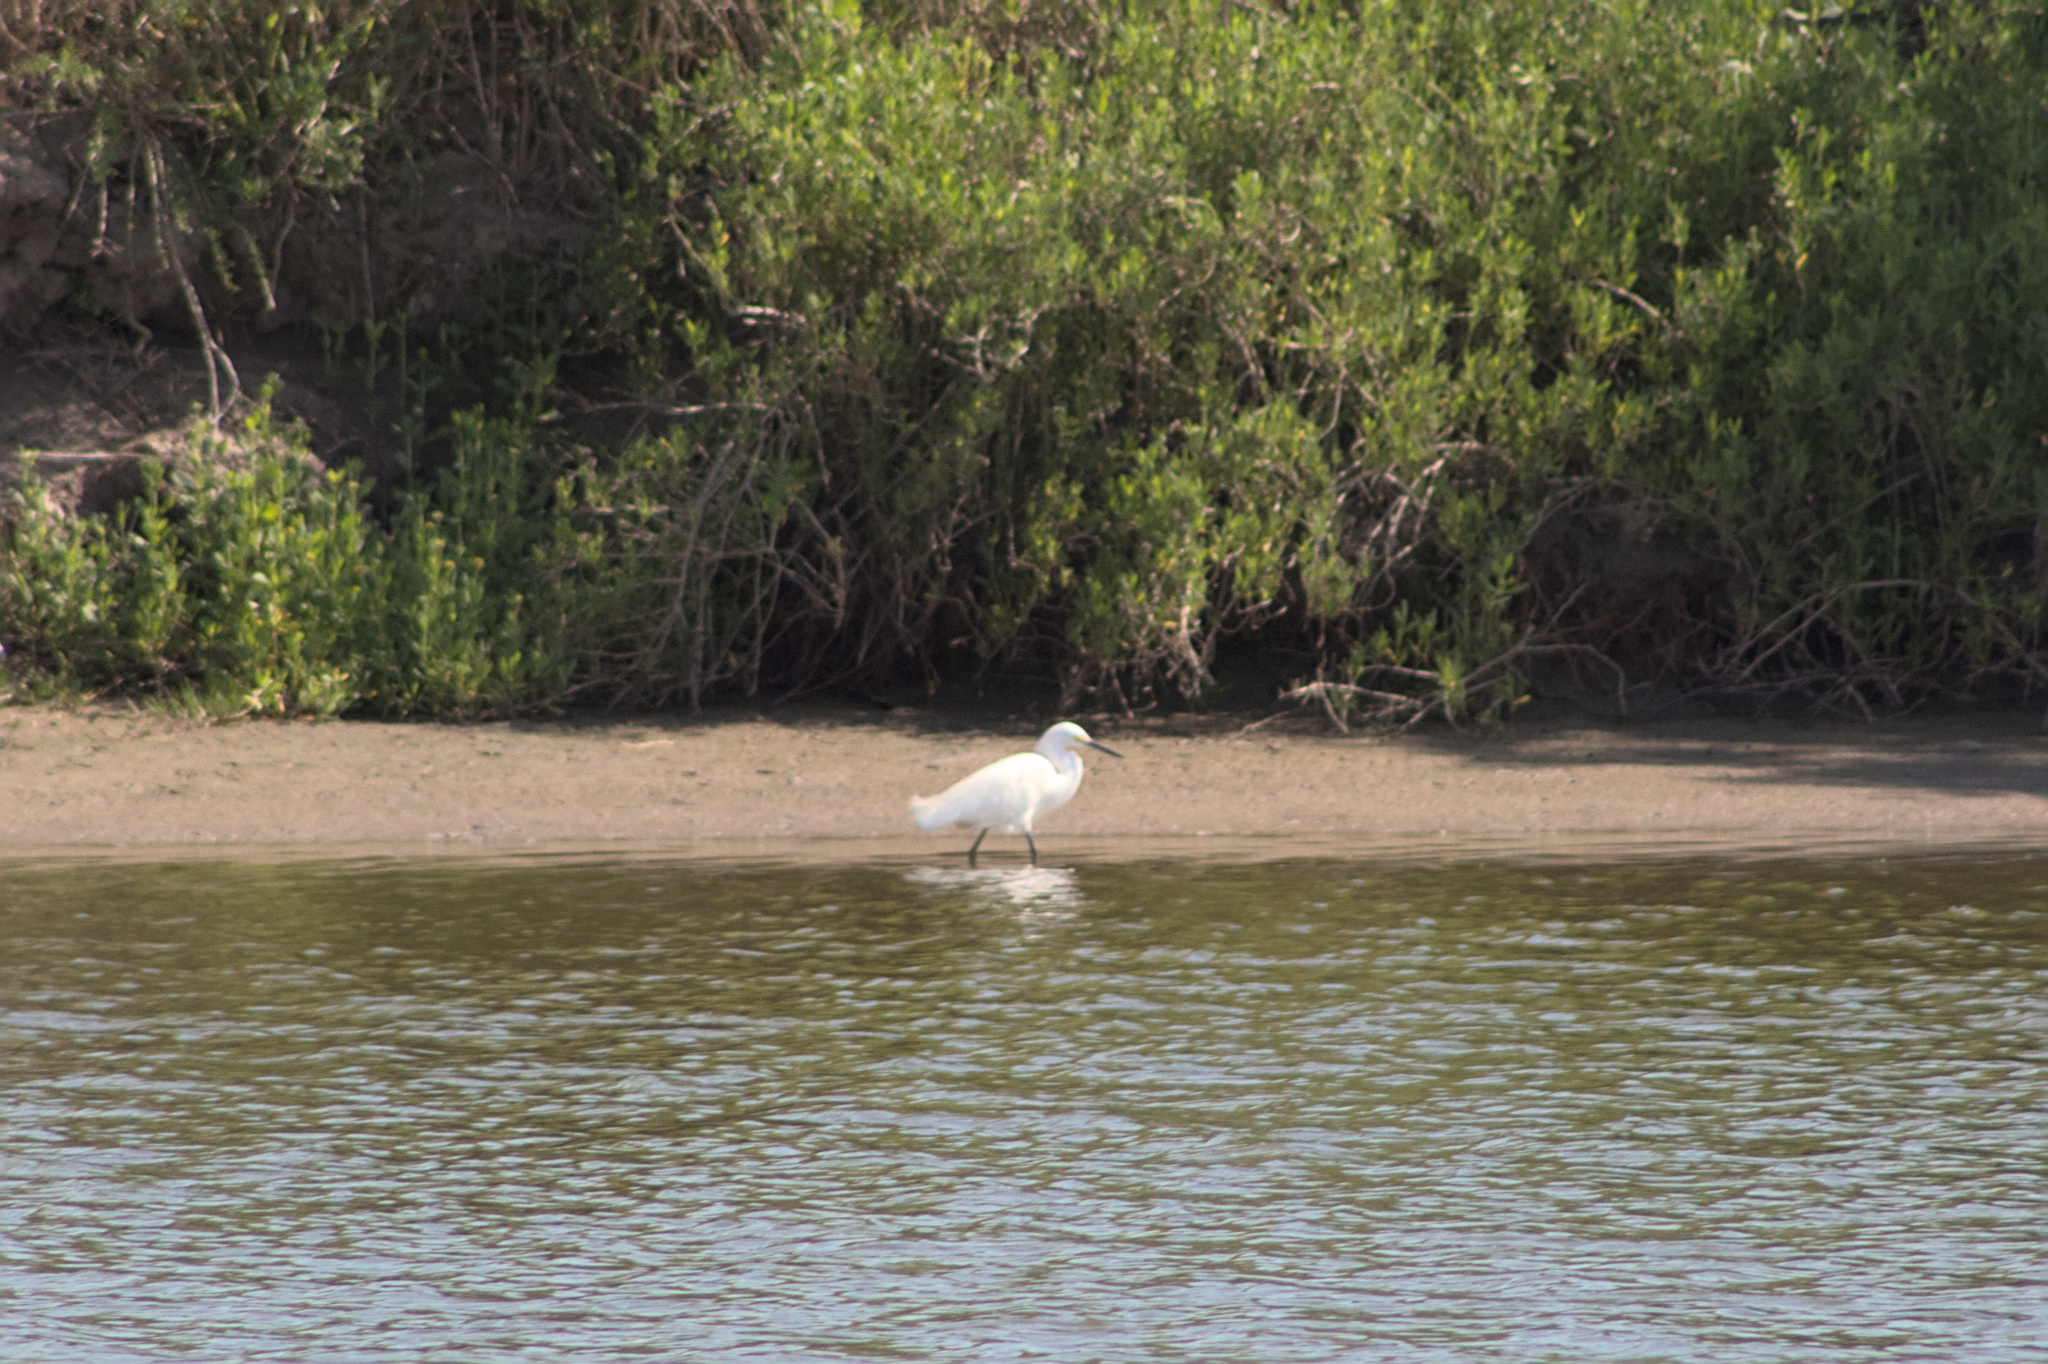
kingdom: Animalia
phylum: Chordata
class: Aves
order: Pelecaniformes
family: Ardeidae
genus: Egretta
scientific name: Egretta thula
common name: Snowy egret
